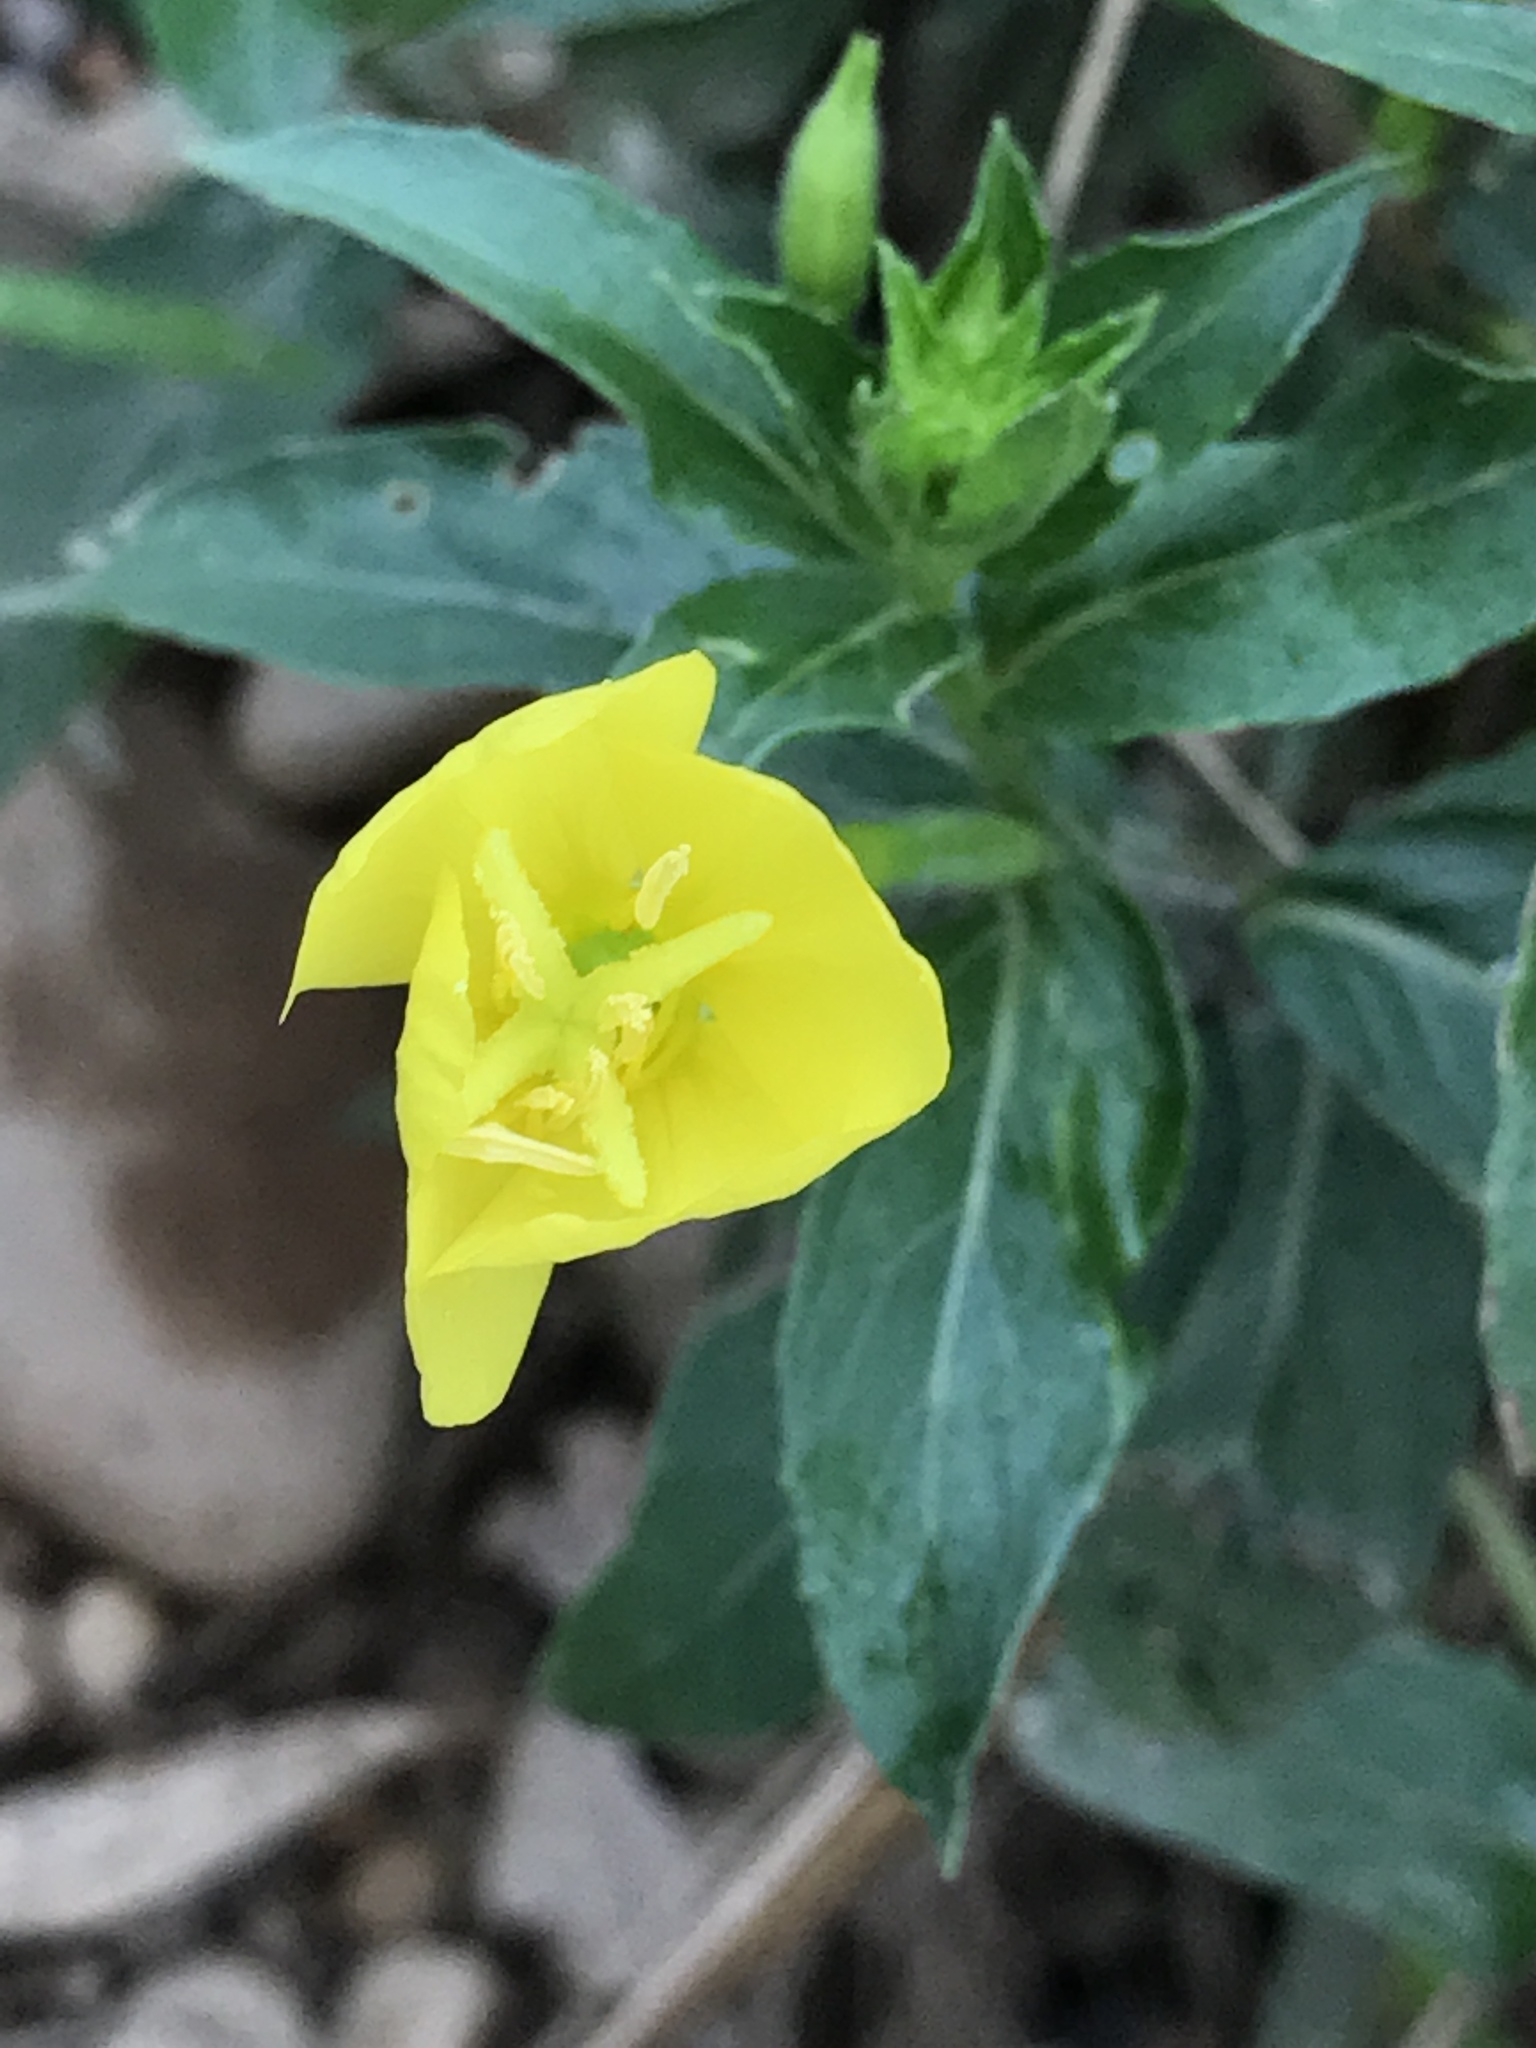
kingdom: Plantae
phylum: Tracheophyta
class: Magnoliopsida
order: Myrtales
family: Onagraceae
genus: Oenothera
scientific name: Oenothera biennis
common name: Common evening-primrose
